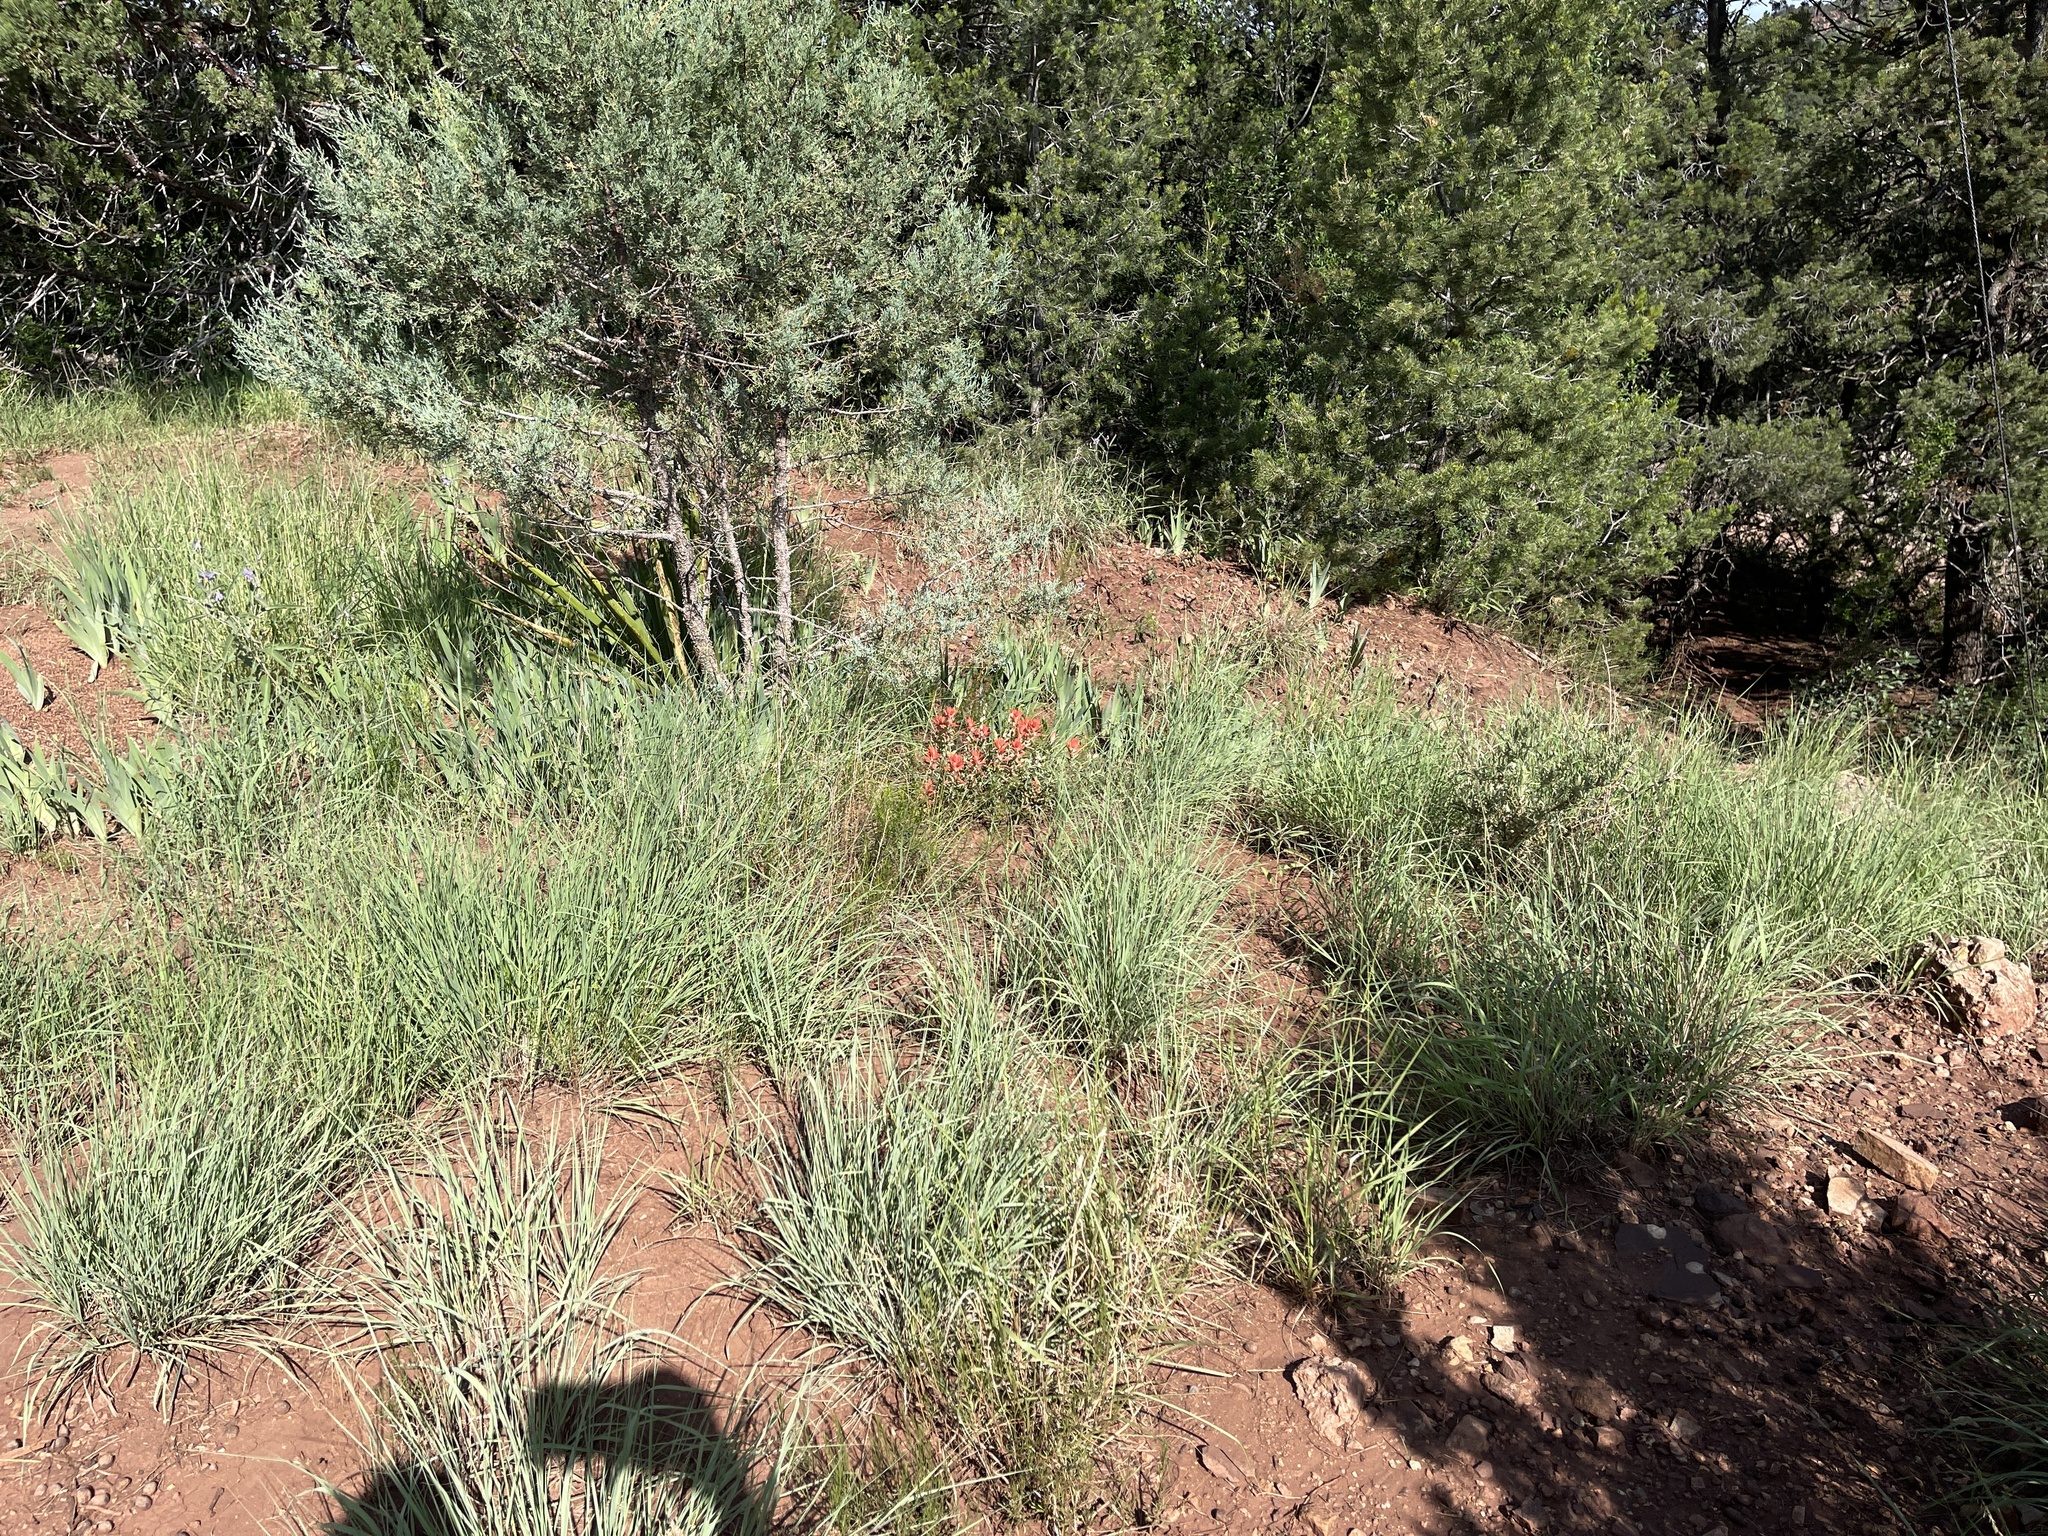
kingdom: Plantae
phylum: Tracheophyta
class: Magnoliopsida
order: Lamiales
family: Orobanchaceae
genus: Castilleja
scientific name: Castilleja integra
